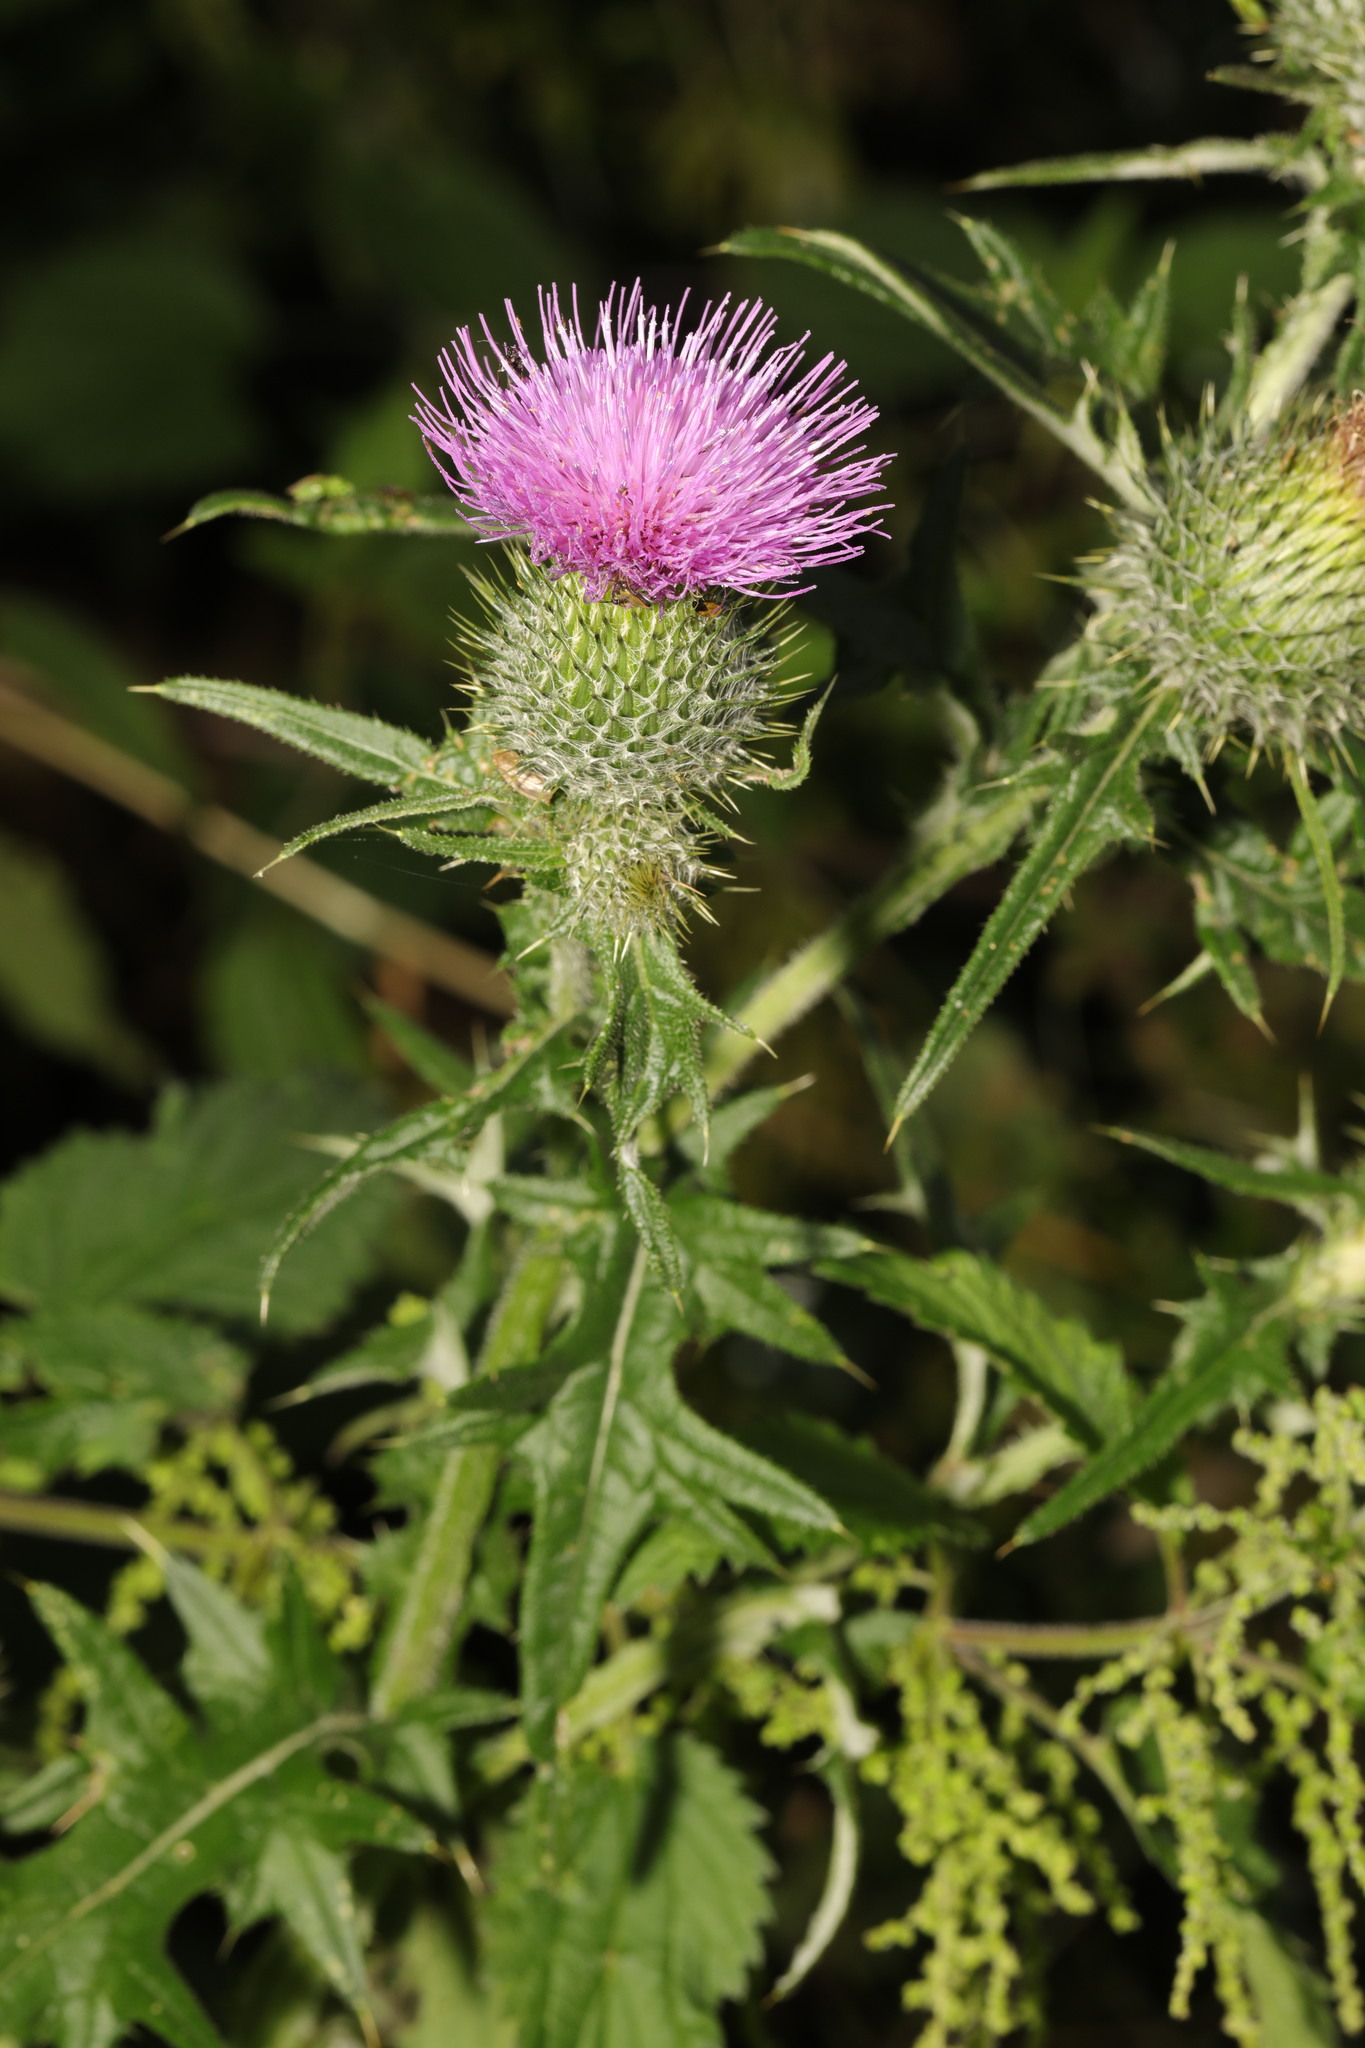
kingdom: Plantae
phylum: Tracheophyta
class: Magnoliopsida
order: Asterales
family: Asteraceae
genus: Cirsium
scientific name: Cirsium vulgare
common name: Bull thistle
